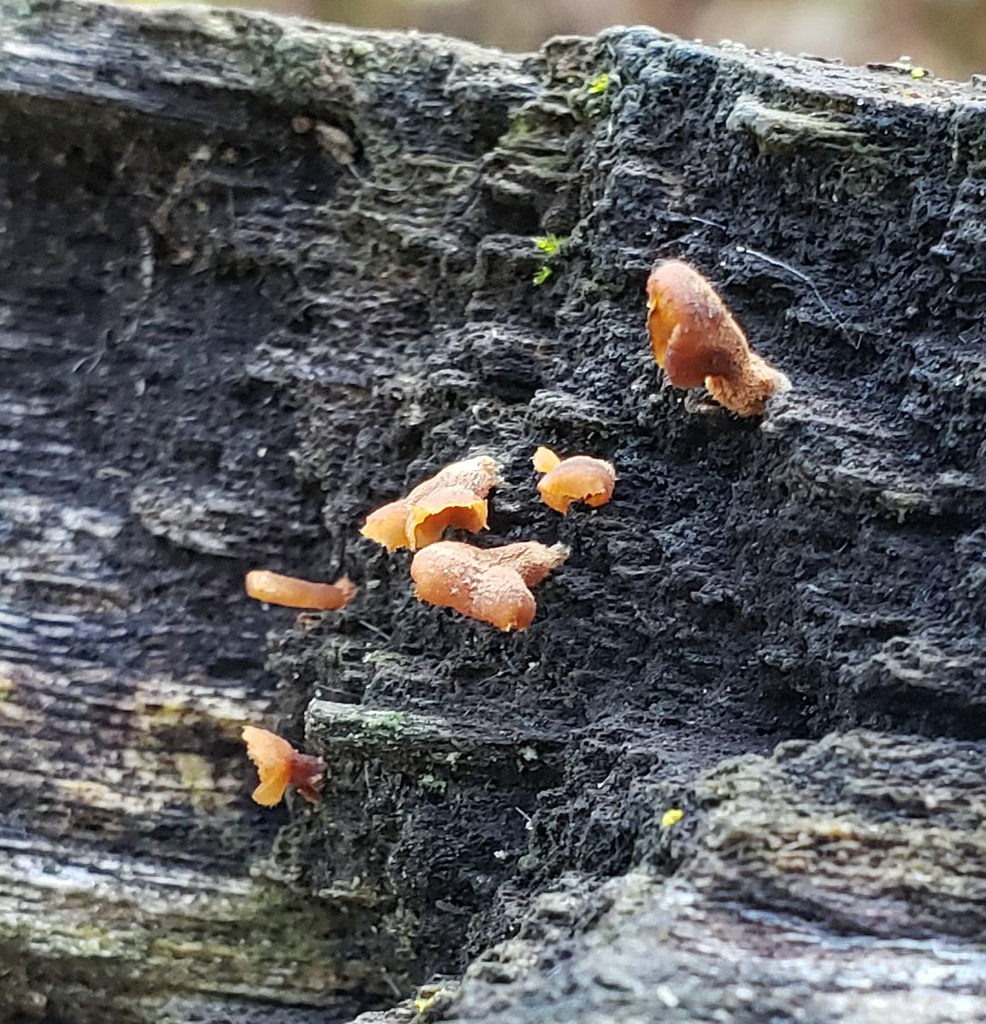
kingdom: Fungi
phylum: Basidiomycota
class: Dacrymycetes
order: Dacrymycetales
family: Dacrymycetaceae
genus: Dacryopinax
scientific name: Dacryopinax elegans
